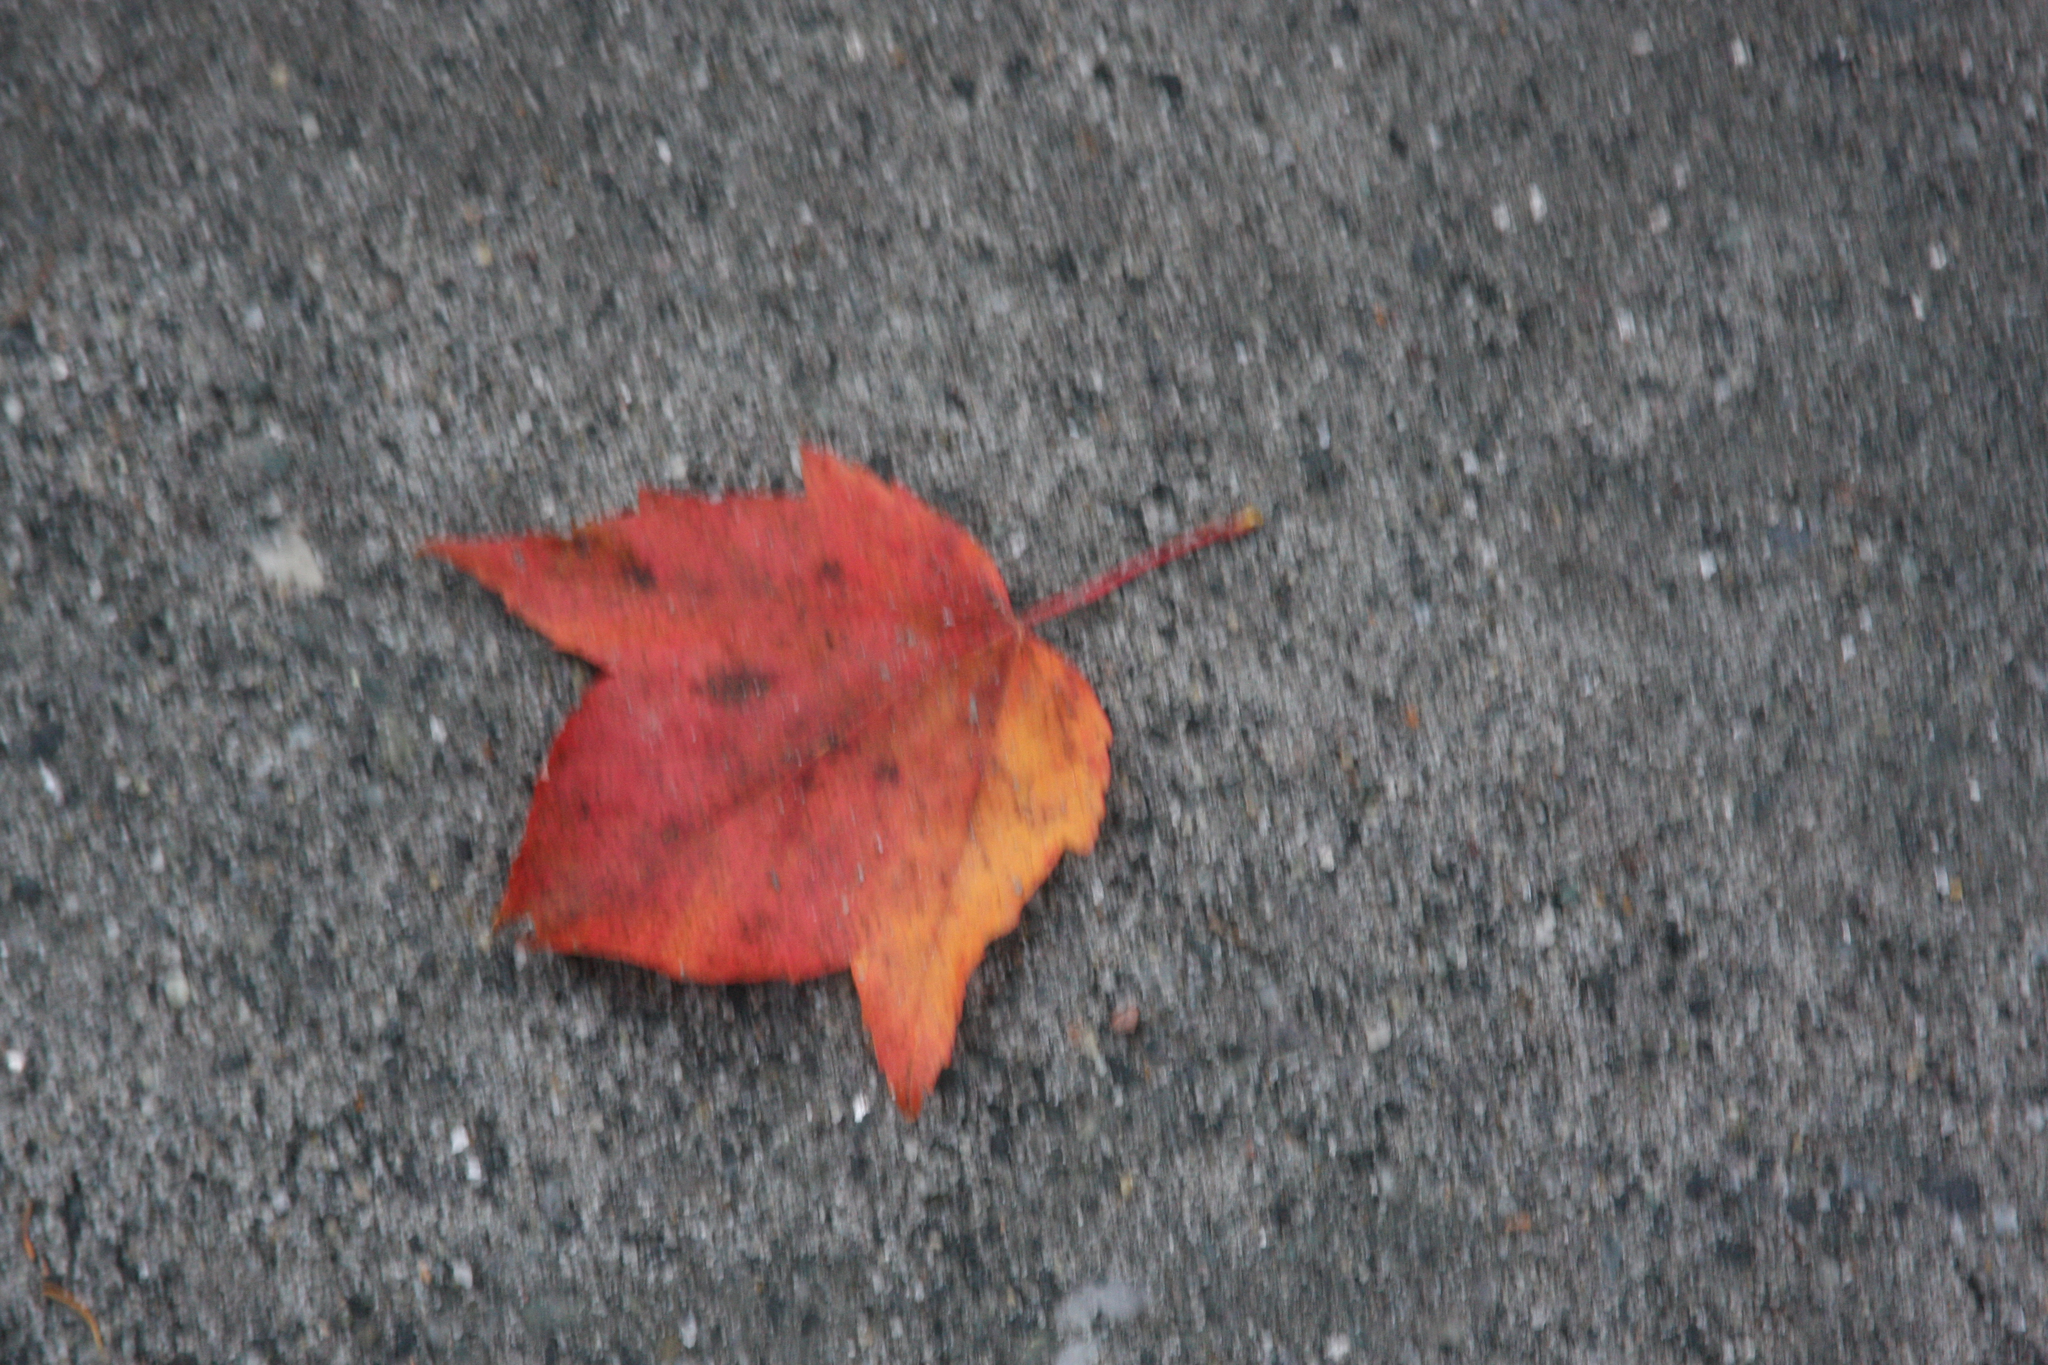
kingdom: Plantae
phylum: Tracheophyta
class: Magnoliopsida
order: Sapindales
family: Sapindaceae
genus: Acer
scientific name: Acer rubrum
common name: Red maple
